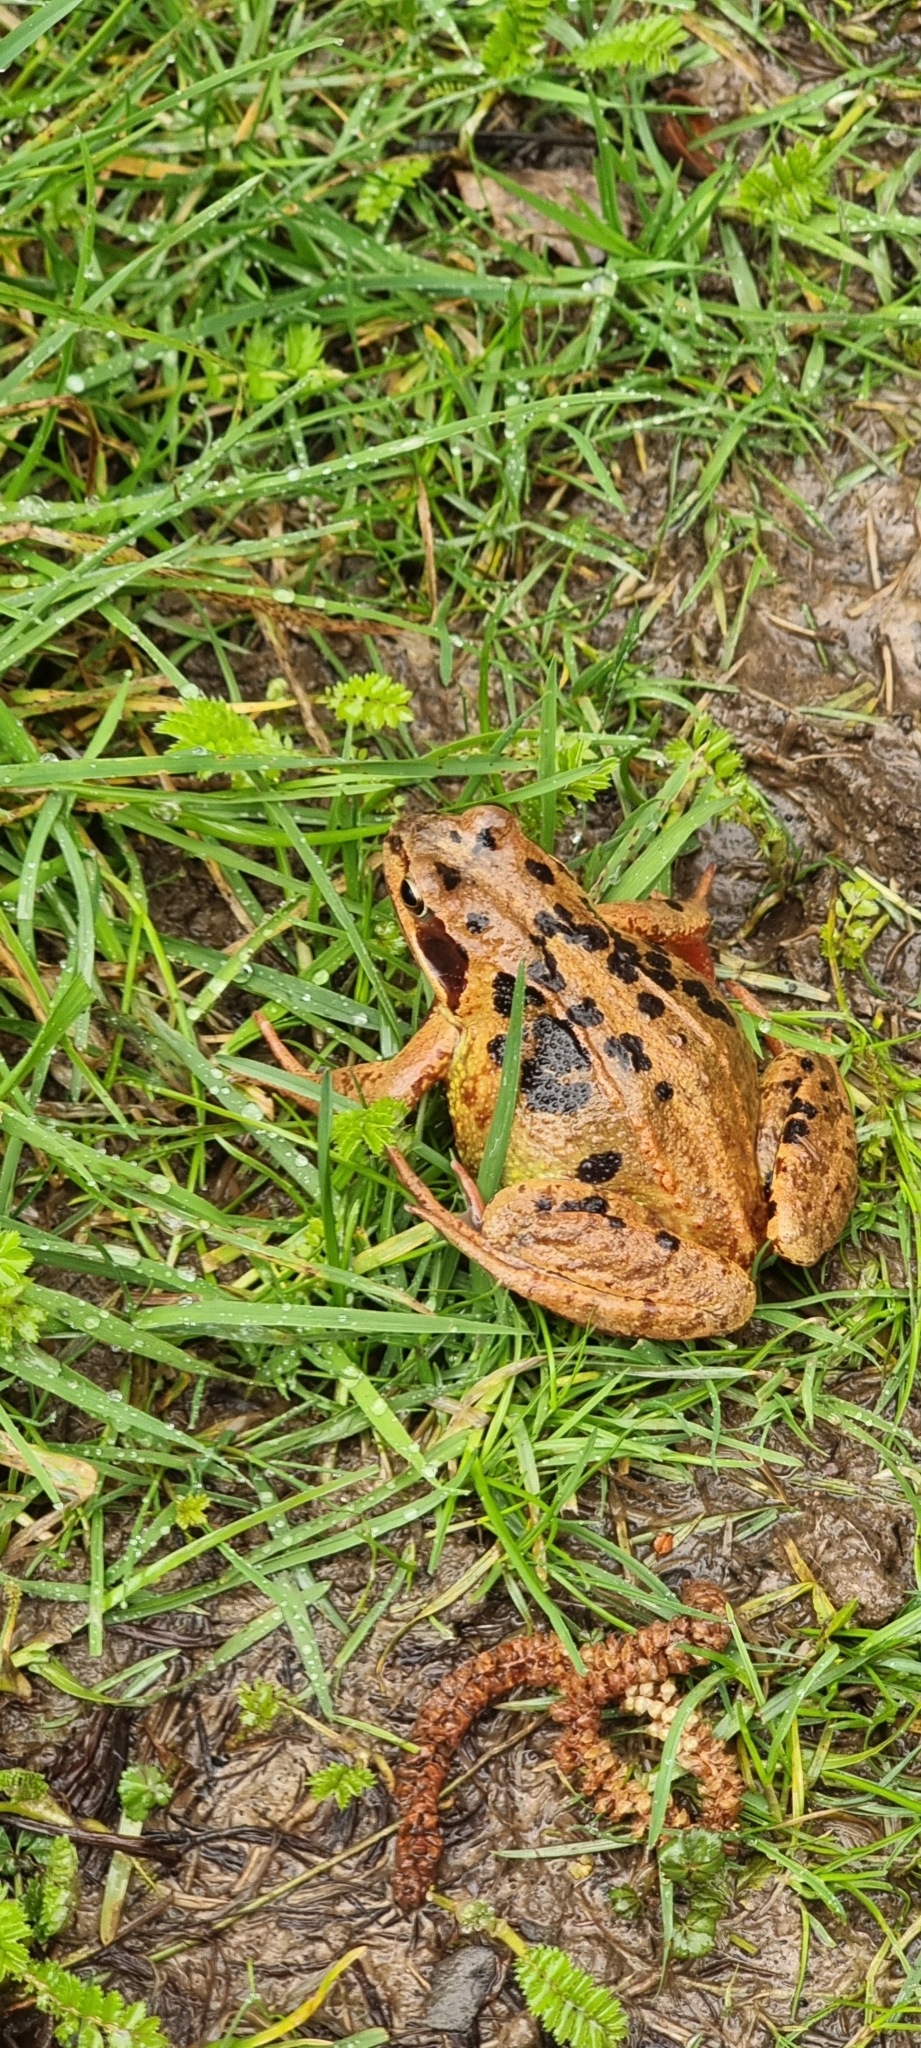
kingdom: Animalia
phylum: Chordata
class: Amphibia
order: Anura
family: Ranidae
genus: Rana
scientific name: Rana temporaria
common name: Common frog
